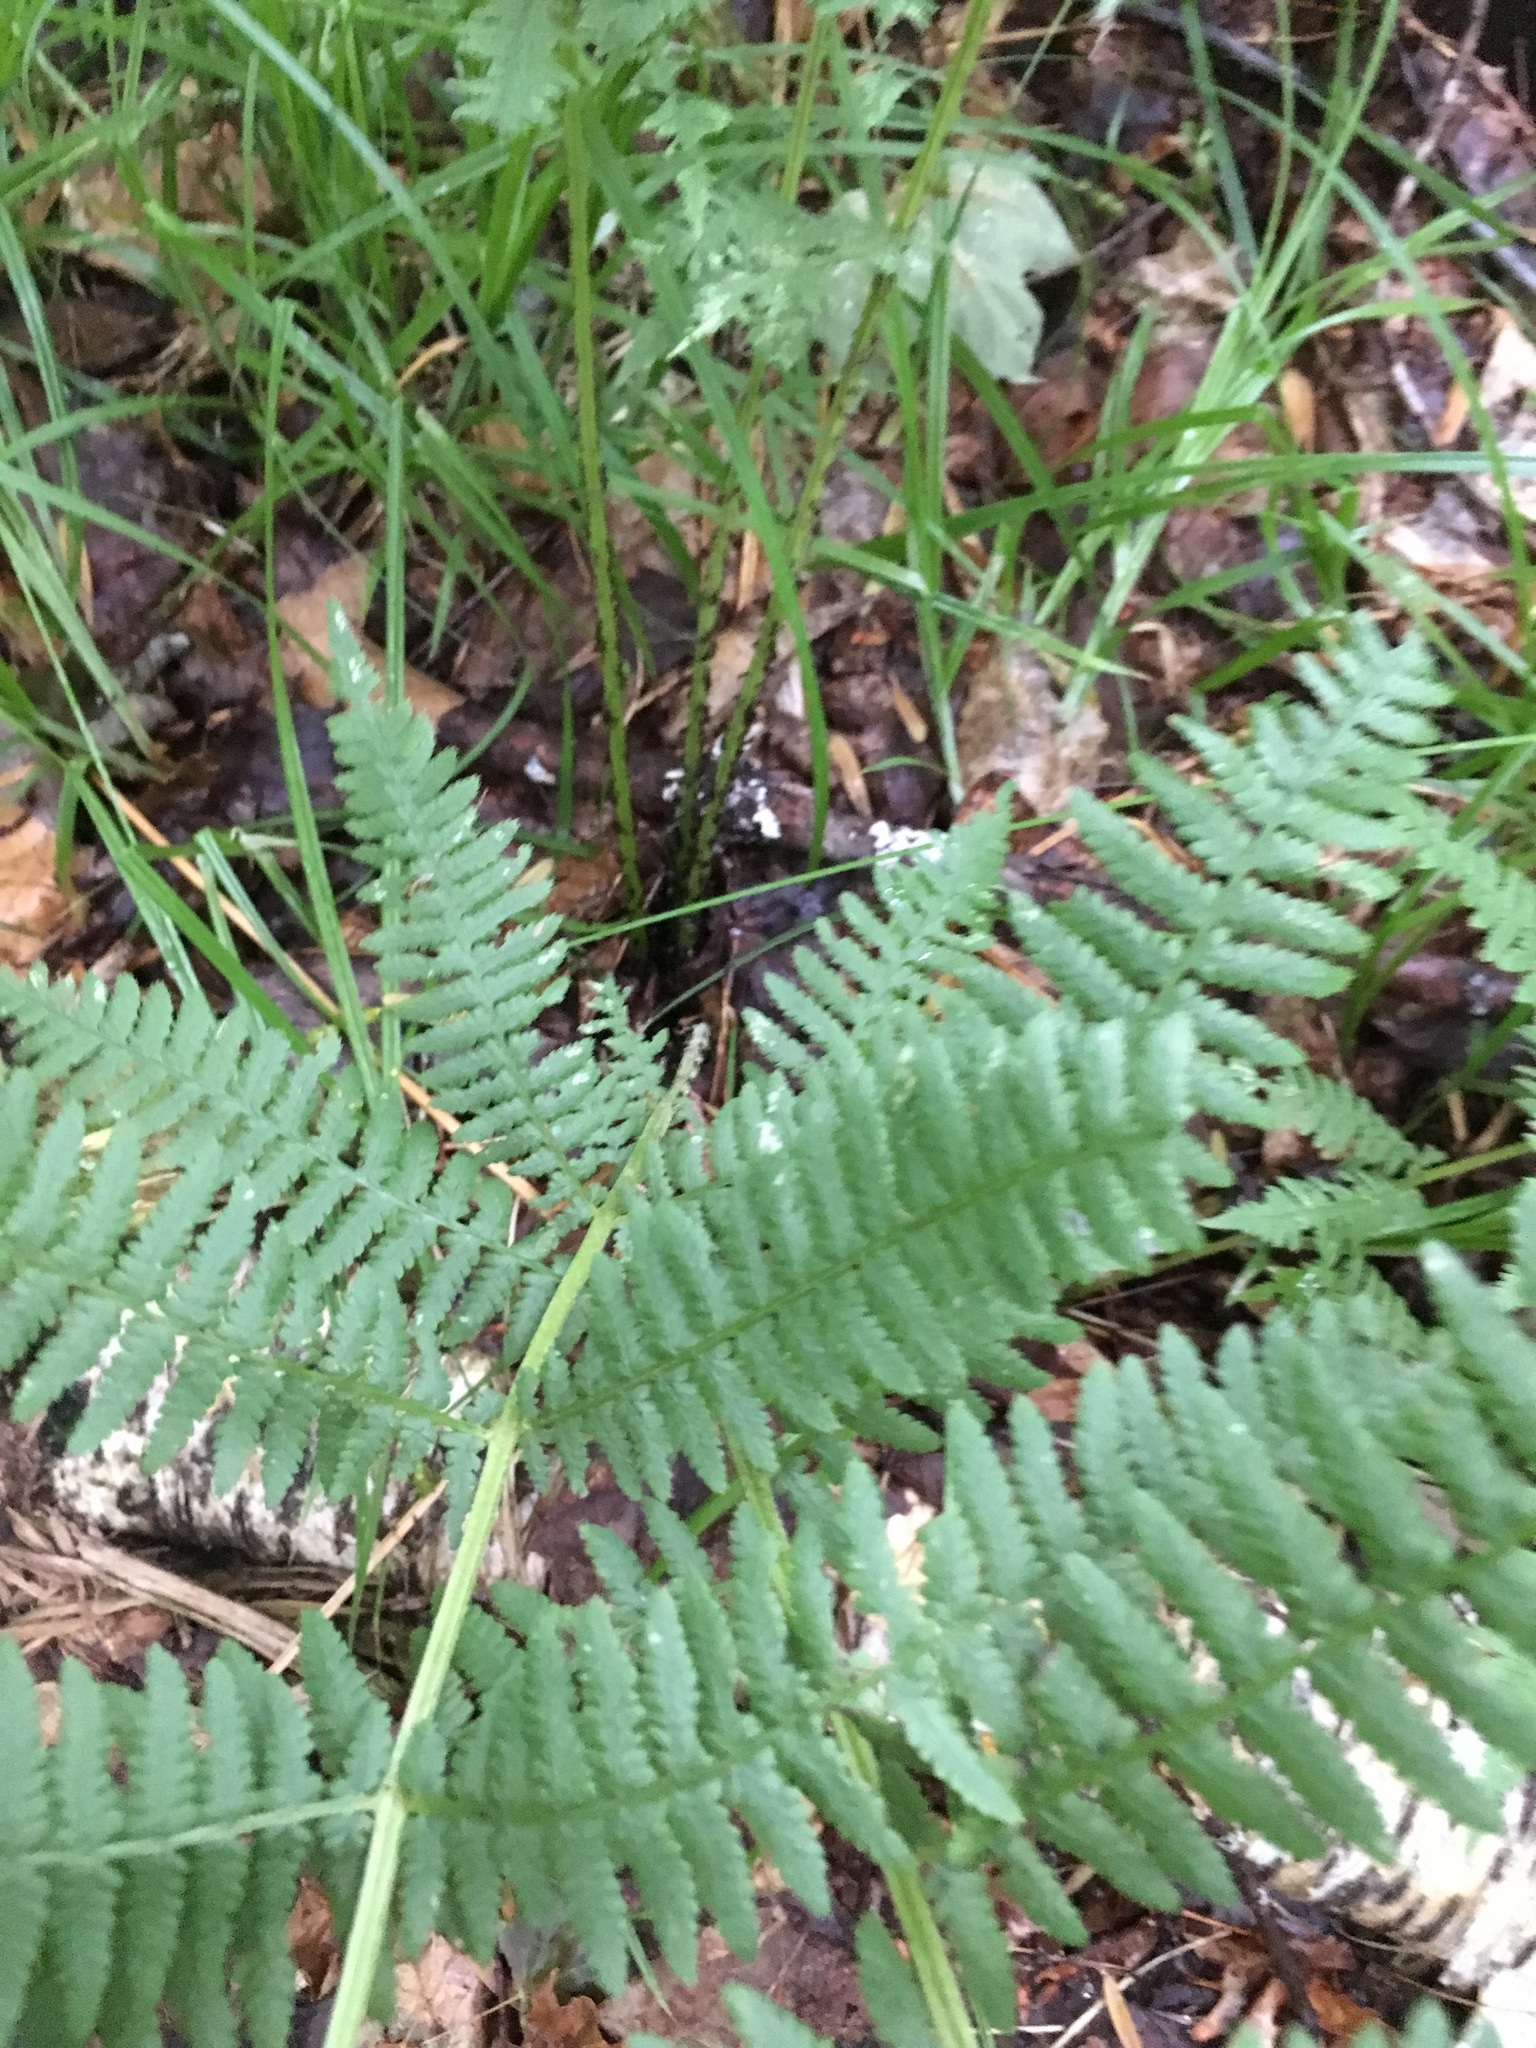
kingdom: Plantae
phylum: Tracheophyta
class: Polypodiopsida
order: Polypodiales
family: Athyriaceae
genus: Athyrium
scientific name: Athyrium angustum
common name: Northern lady fern
